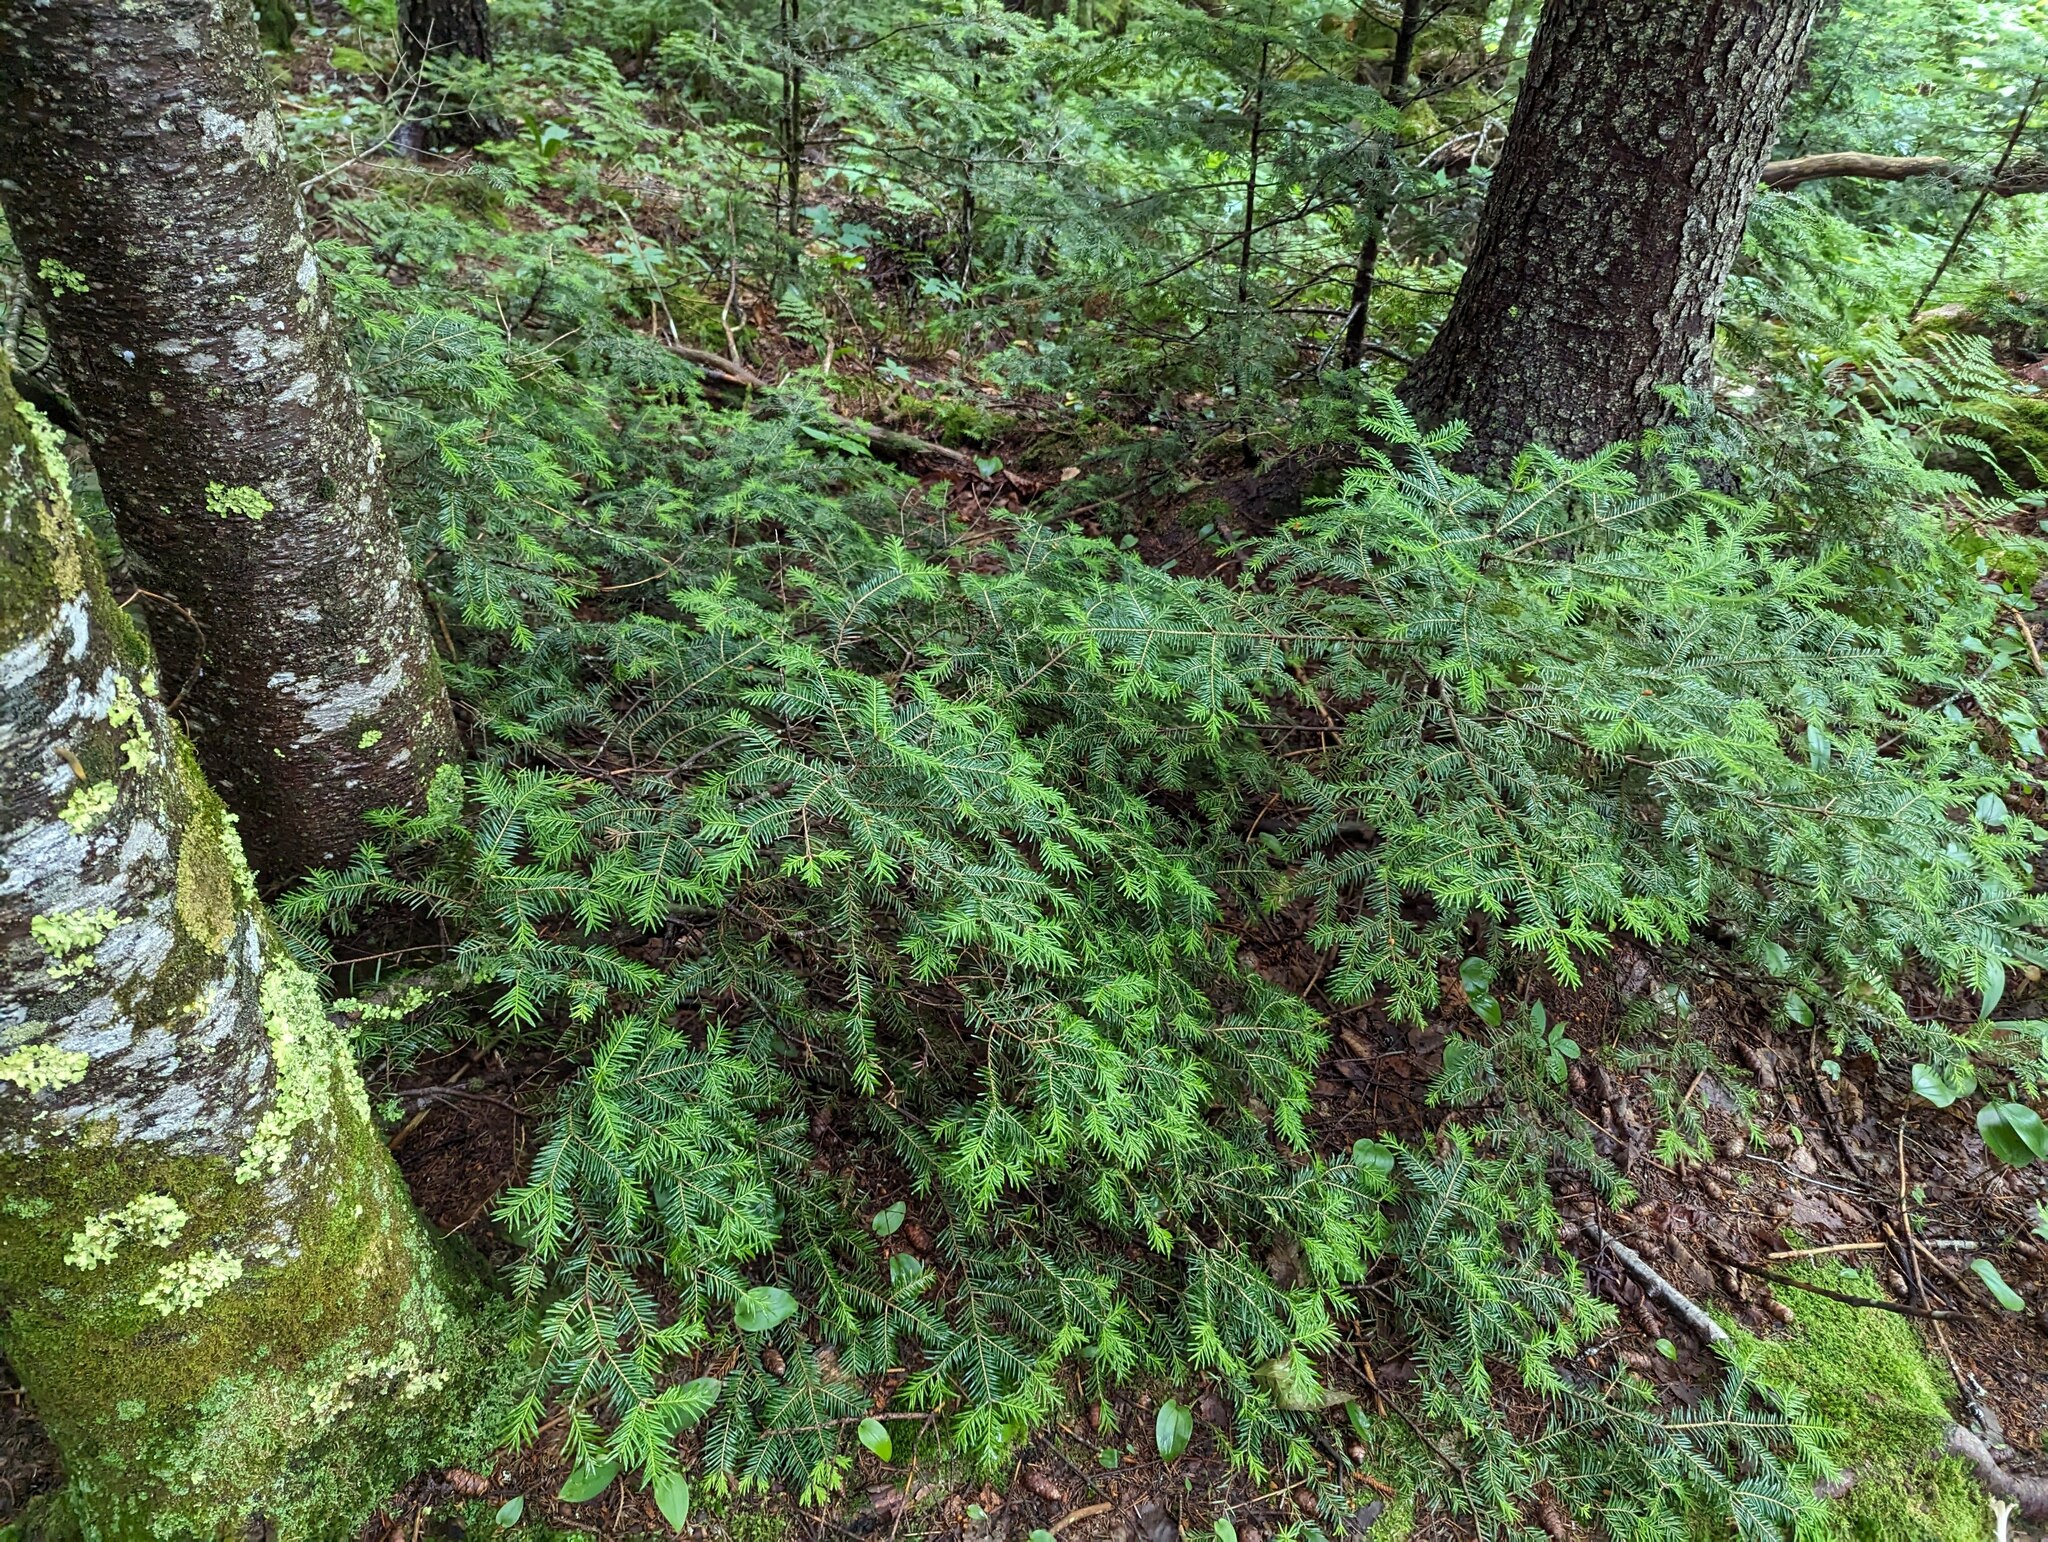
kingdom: Plantae
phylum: Tracheophyta
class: Pinopsida
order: Pinales
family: Pinaceae
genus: Abies
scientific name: Abies balsamea
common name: Balsam fir
